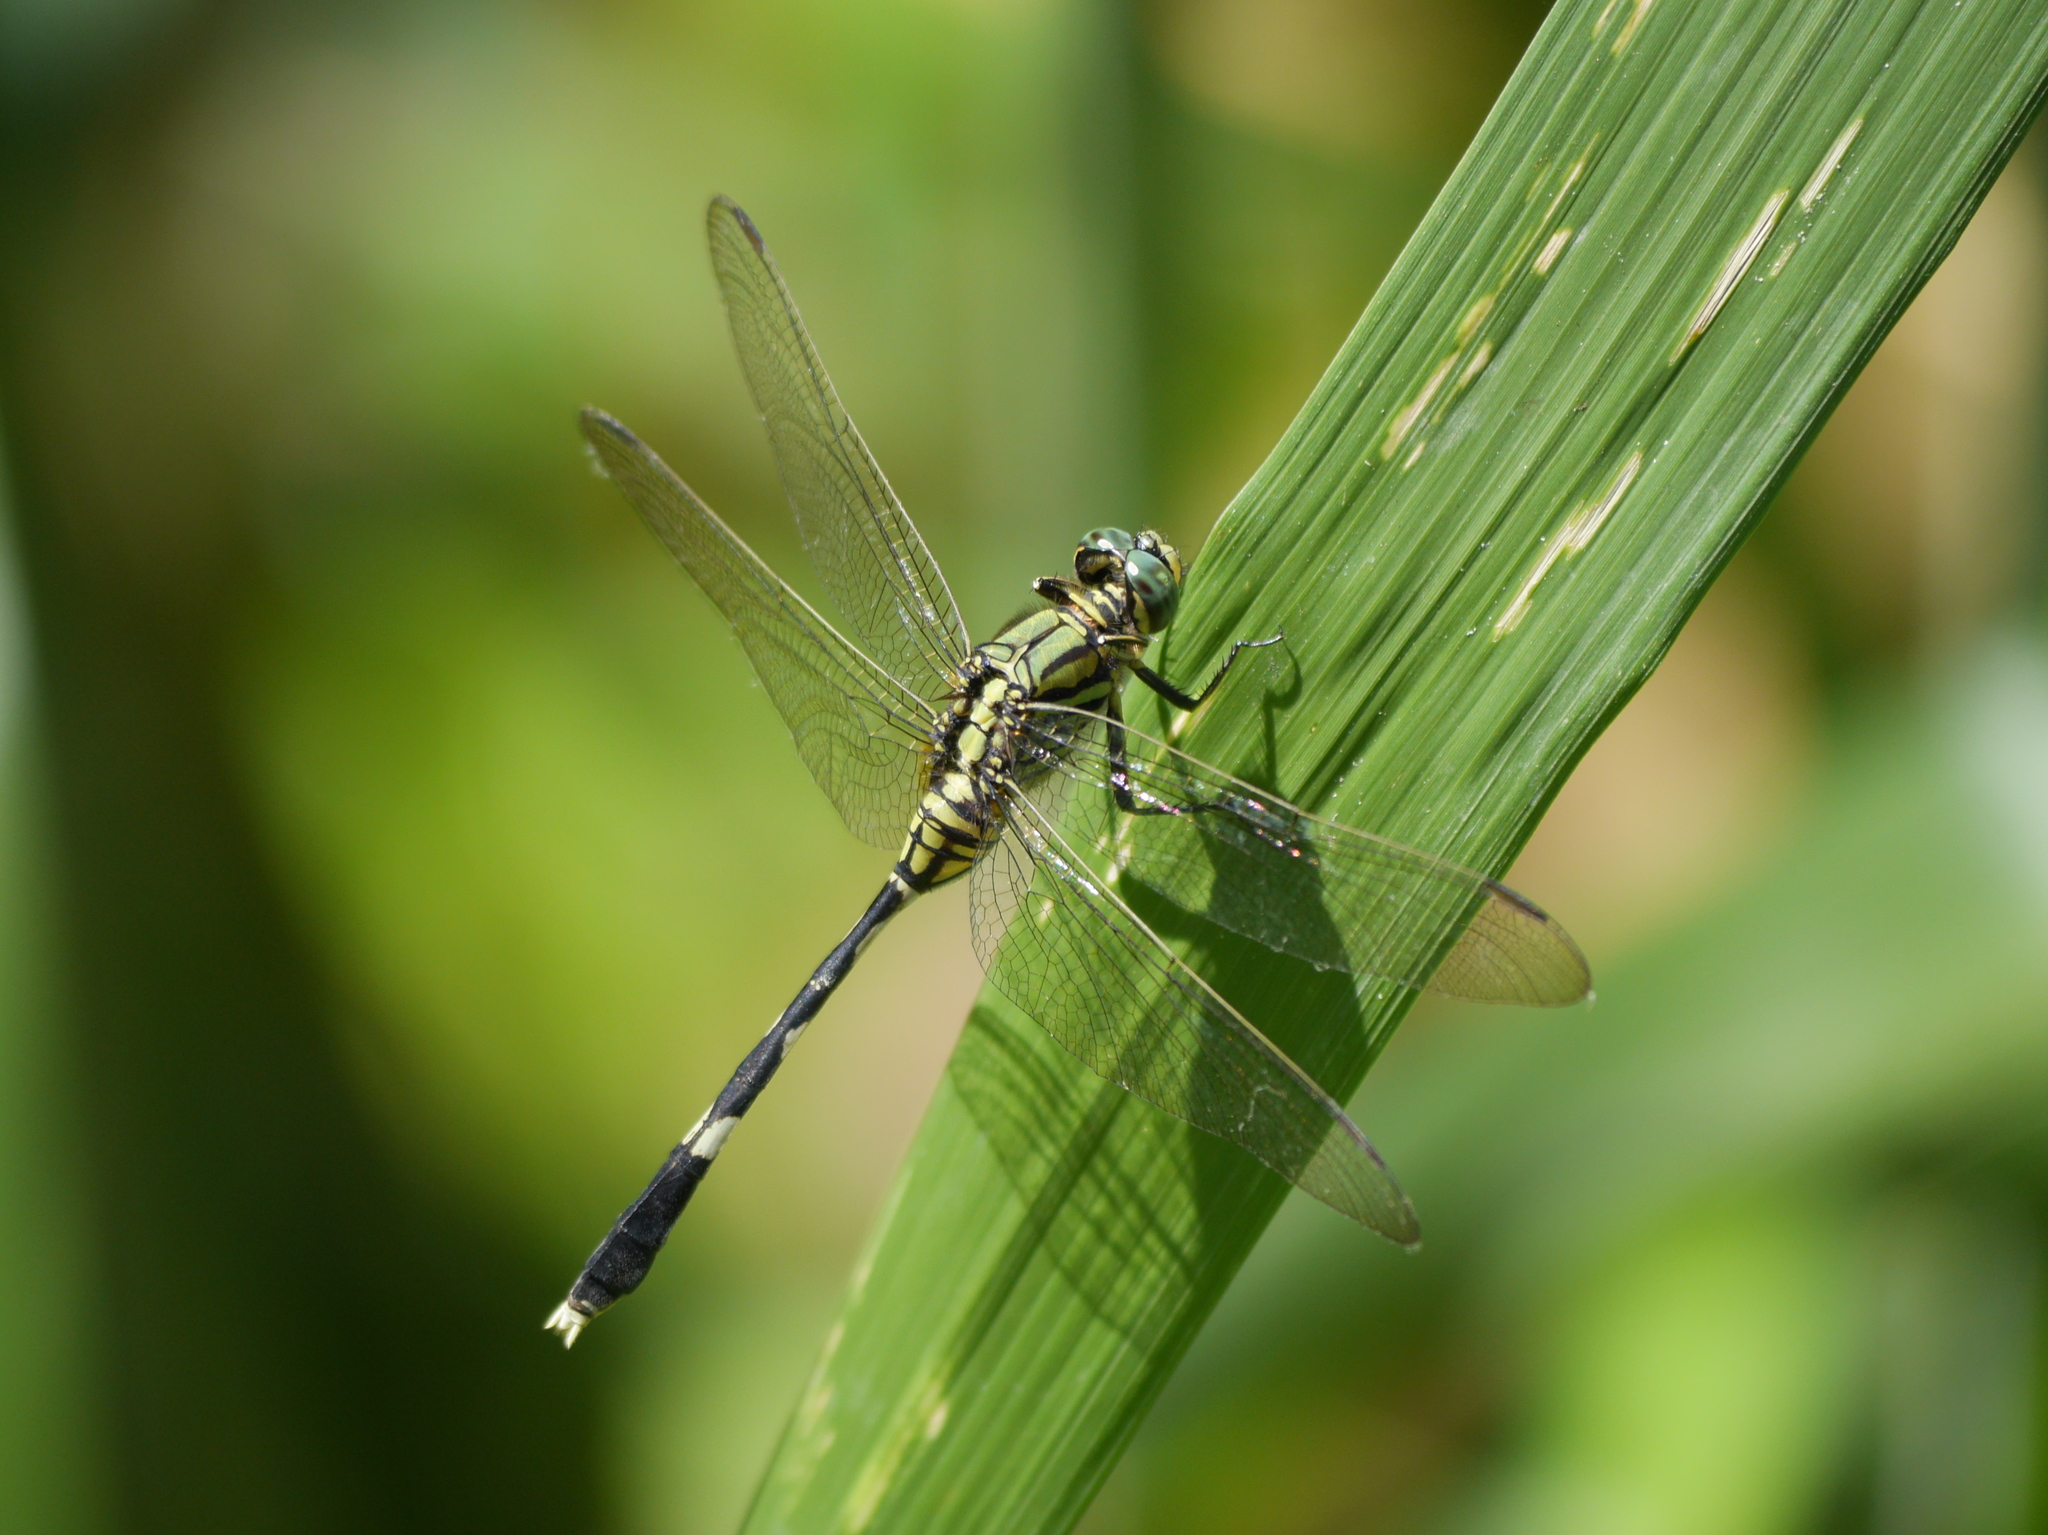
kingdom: Animalia
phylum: Arthropoda
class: Insecta
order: Odonata
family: Libellulidae
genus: Orthetrum
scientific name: Orthetrum sabina
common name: Slender skimmer
